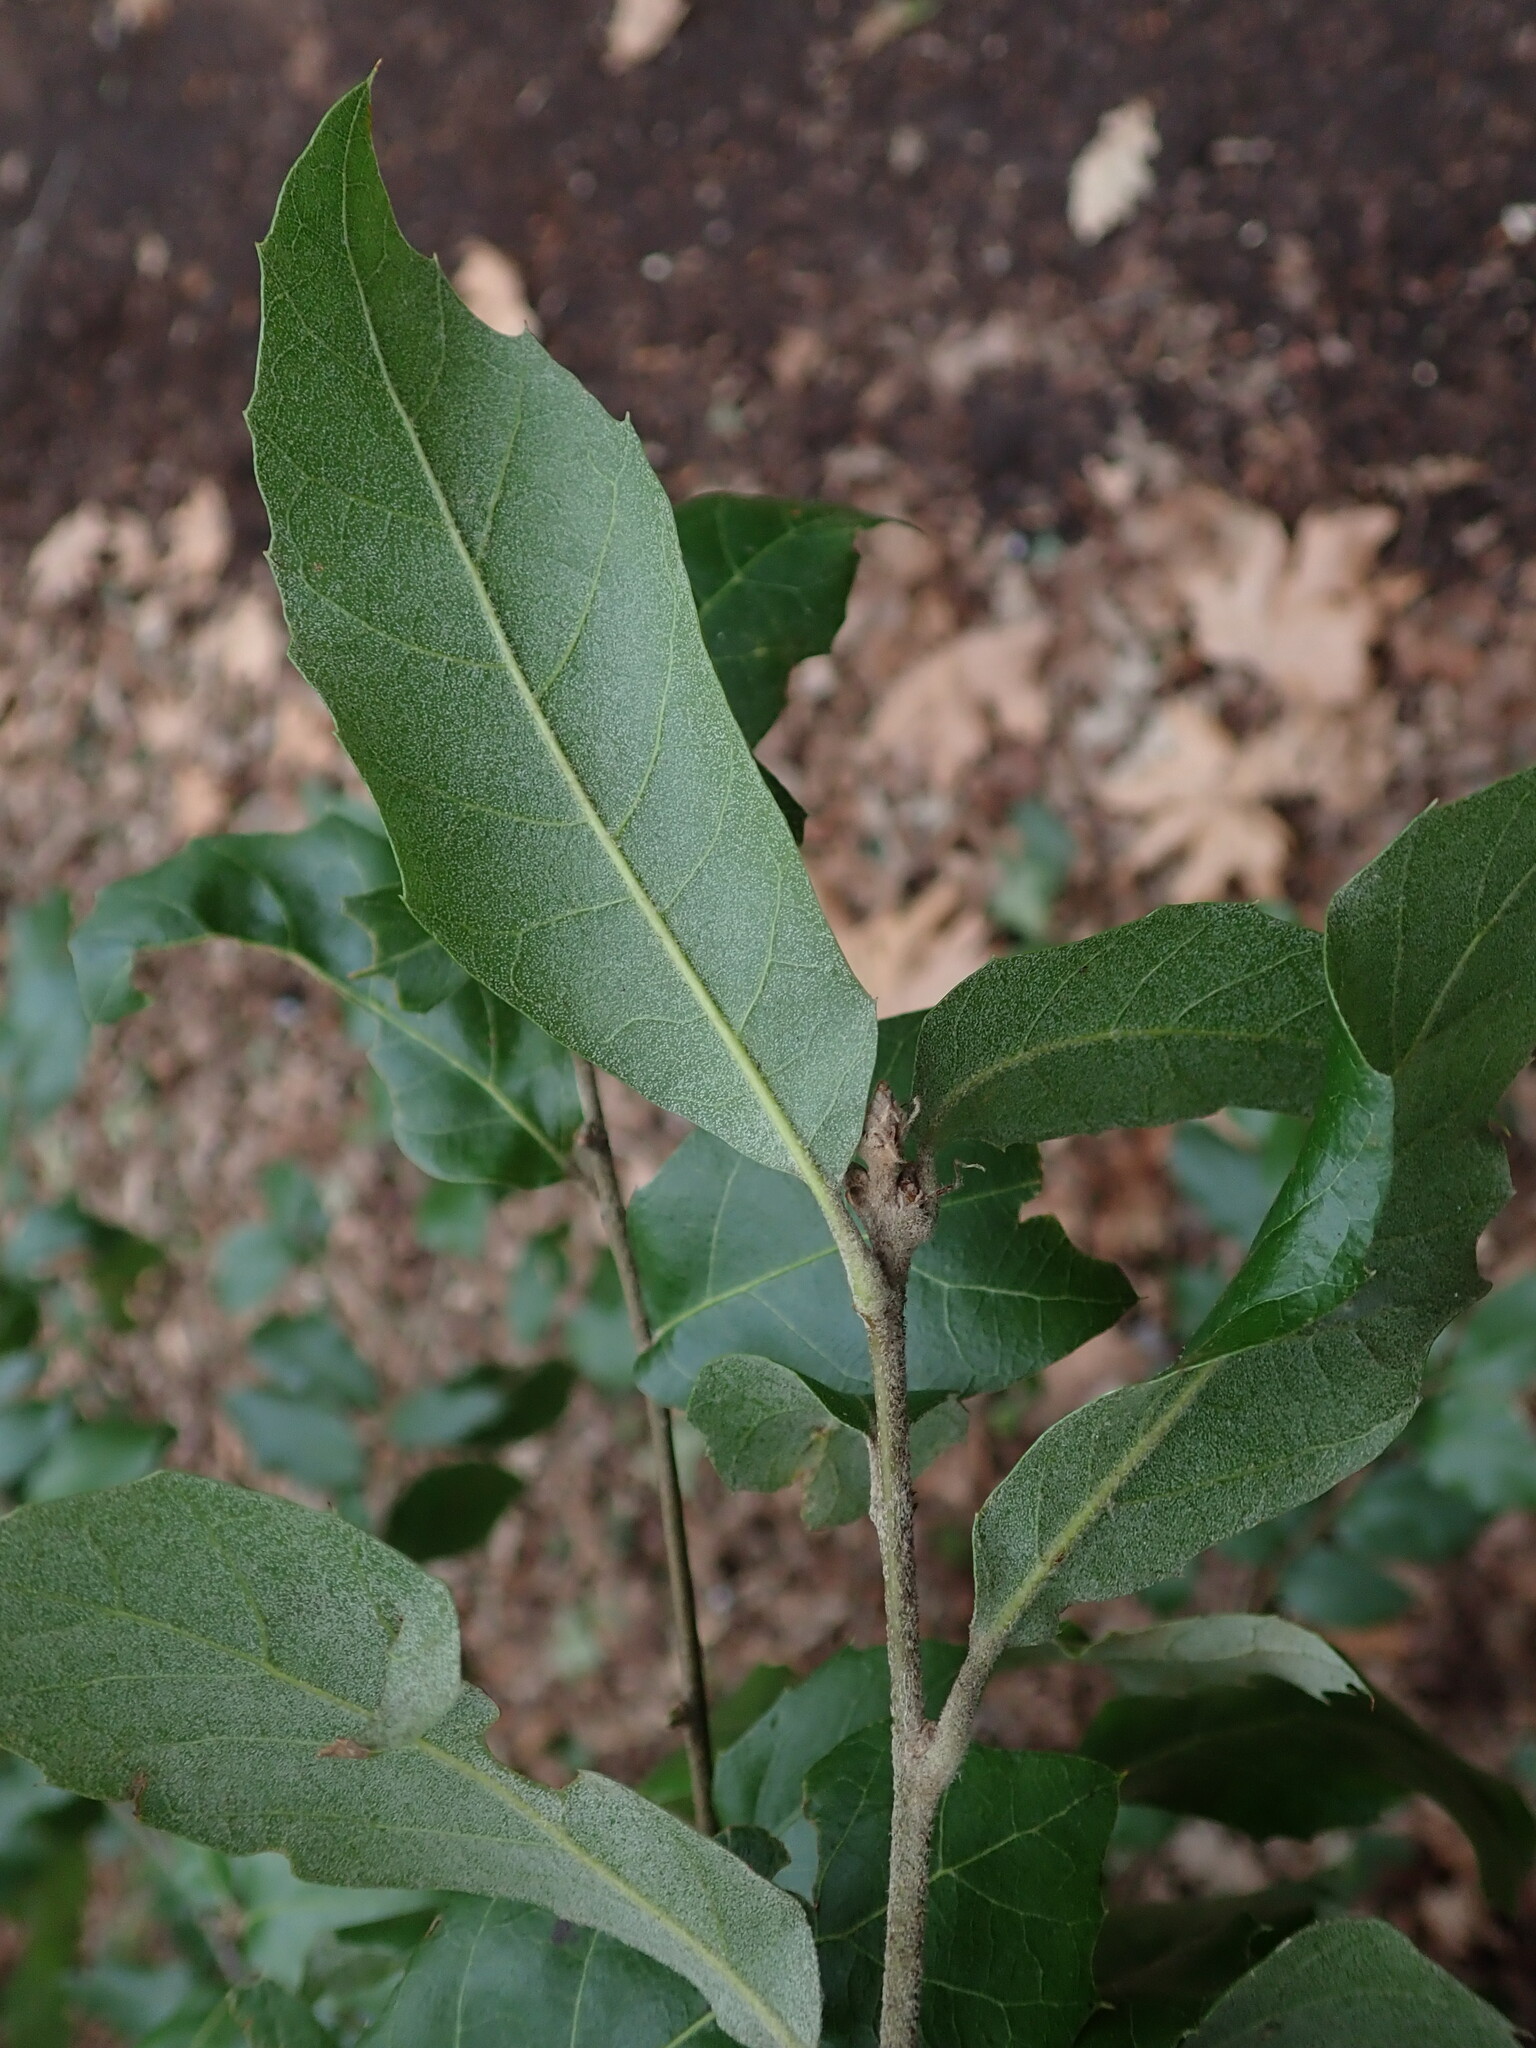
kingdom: Plantae
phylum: Tracheophyta
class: Magnoliopsida
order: Fagales
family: Fagaceae
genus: Quercus
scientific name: Quercus ilex
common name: Evergreen oak
